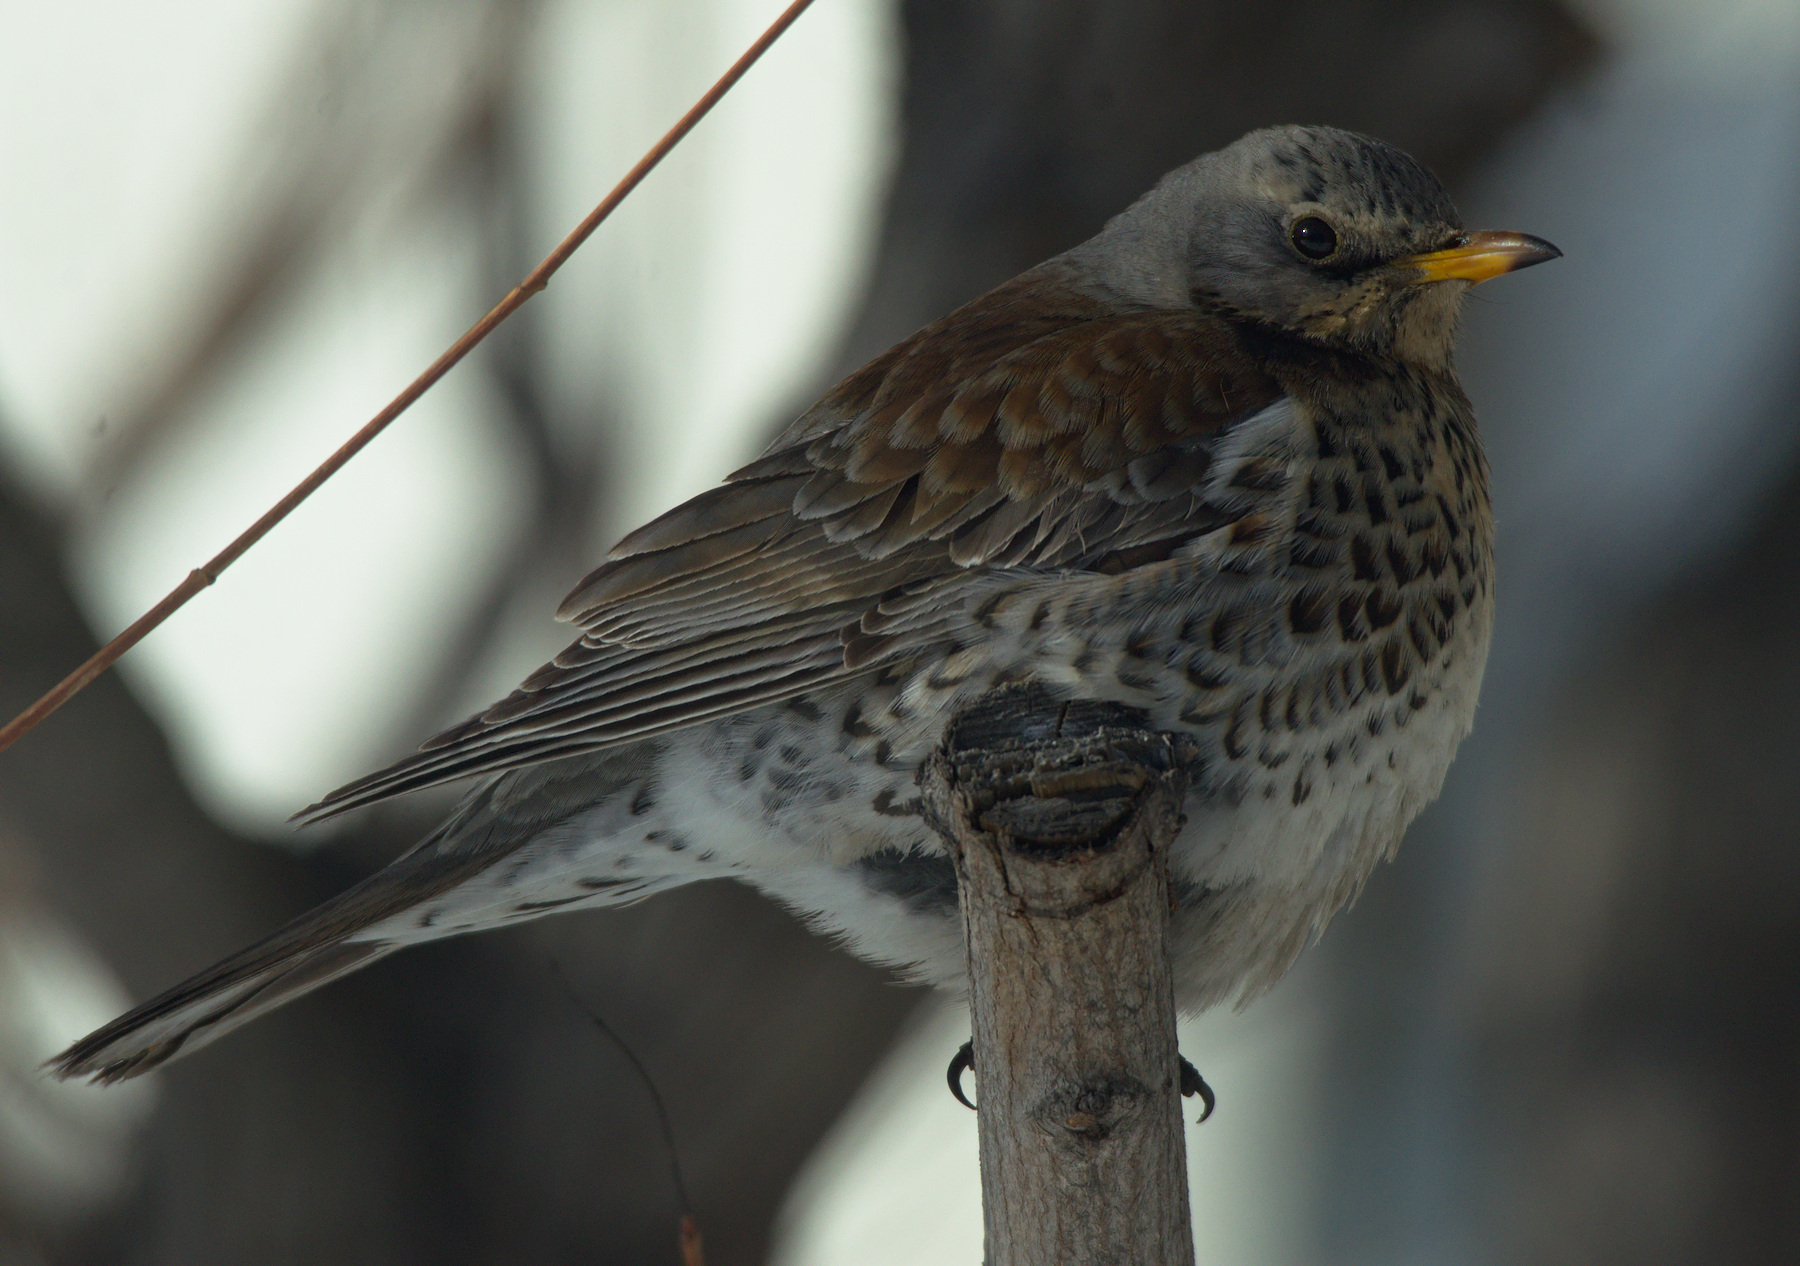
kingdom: Animalia
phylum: Chordata
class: Aves
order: Passeriformes
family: Turdidae
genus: Turdus
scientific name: Turdus pilaris
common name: Fieldfare
